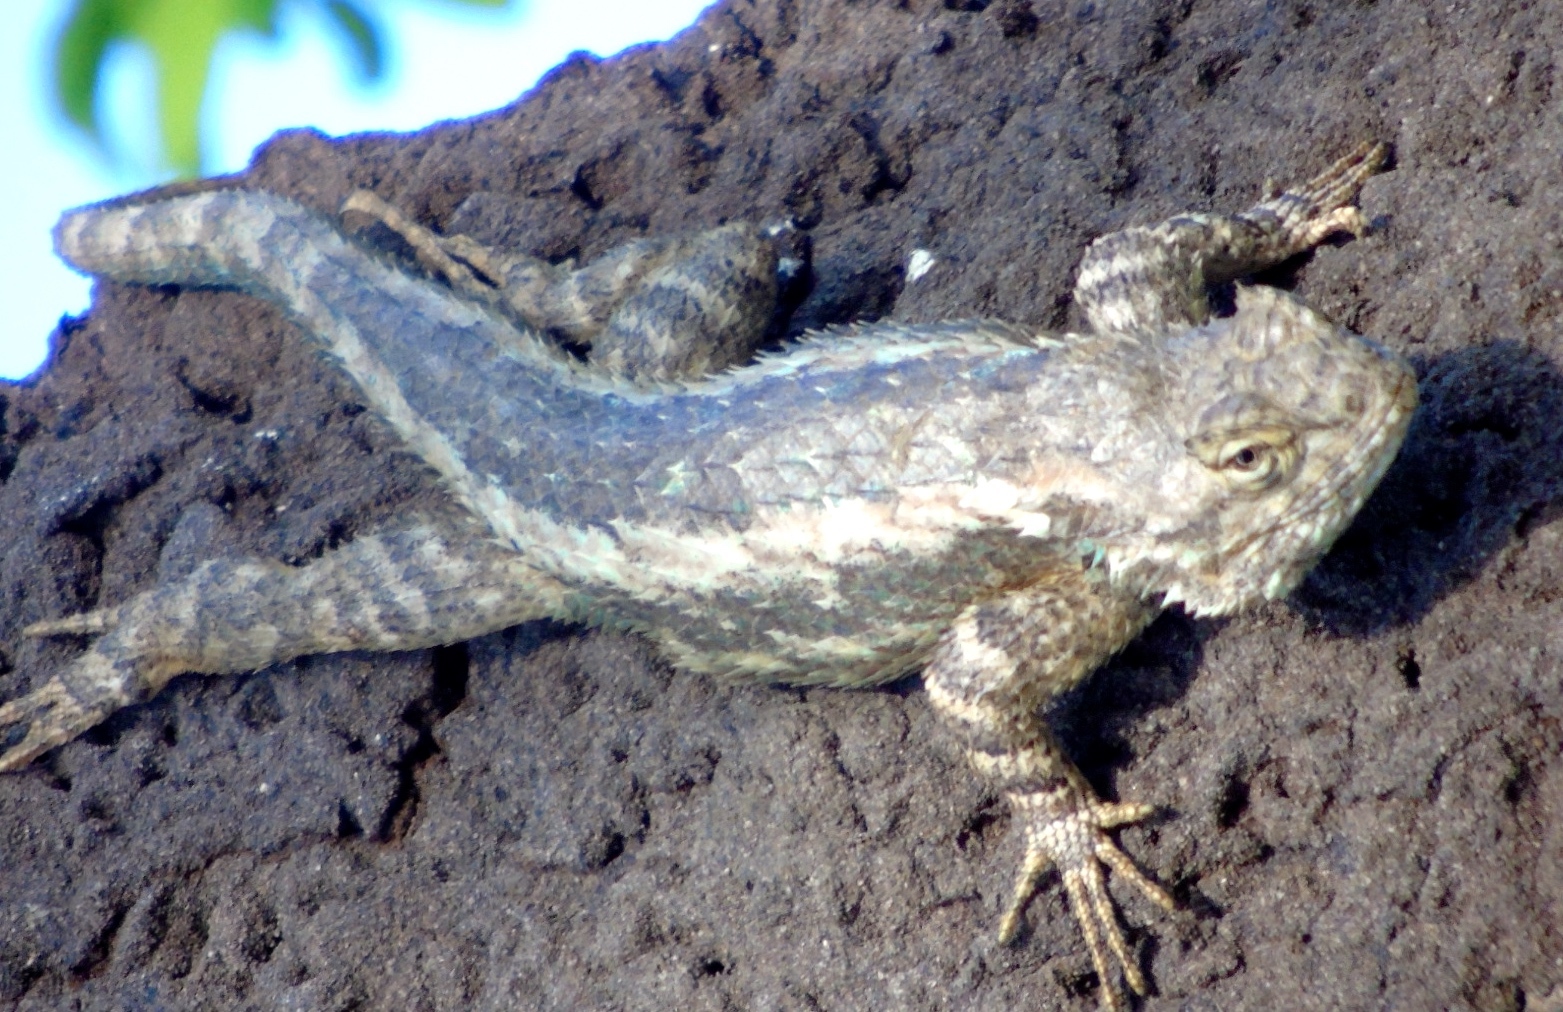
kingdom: Animalia
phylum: Chordata
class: Squamata
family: Phrynosomatidae
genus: Sceloporus
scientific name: Sceloporus clarkii
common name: Clark's spiny lizard
